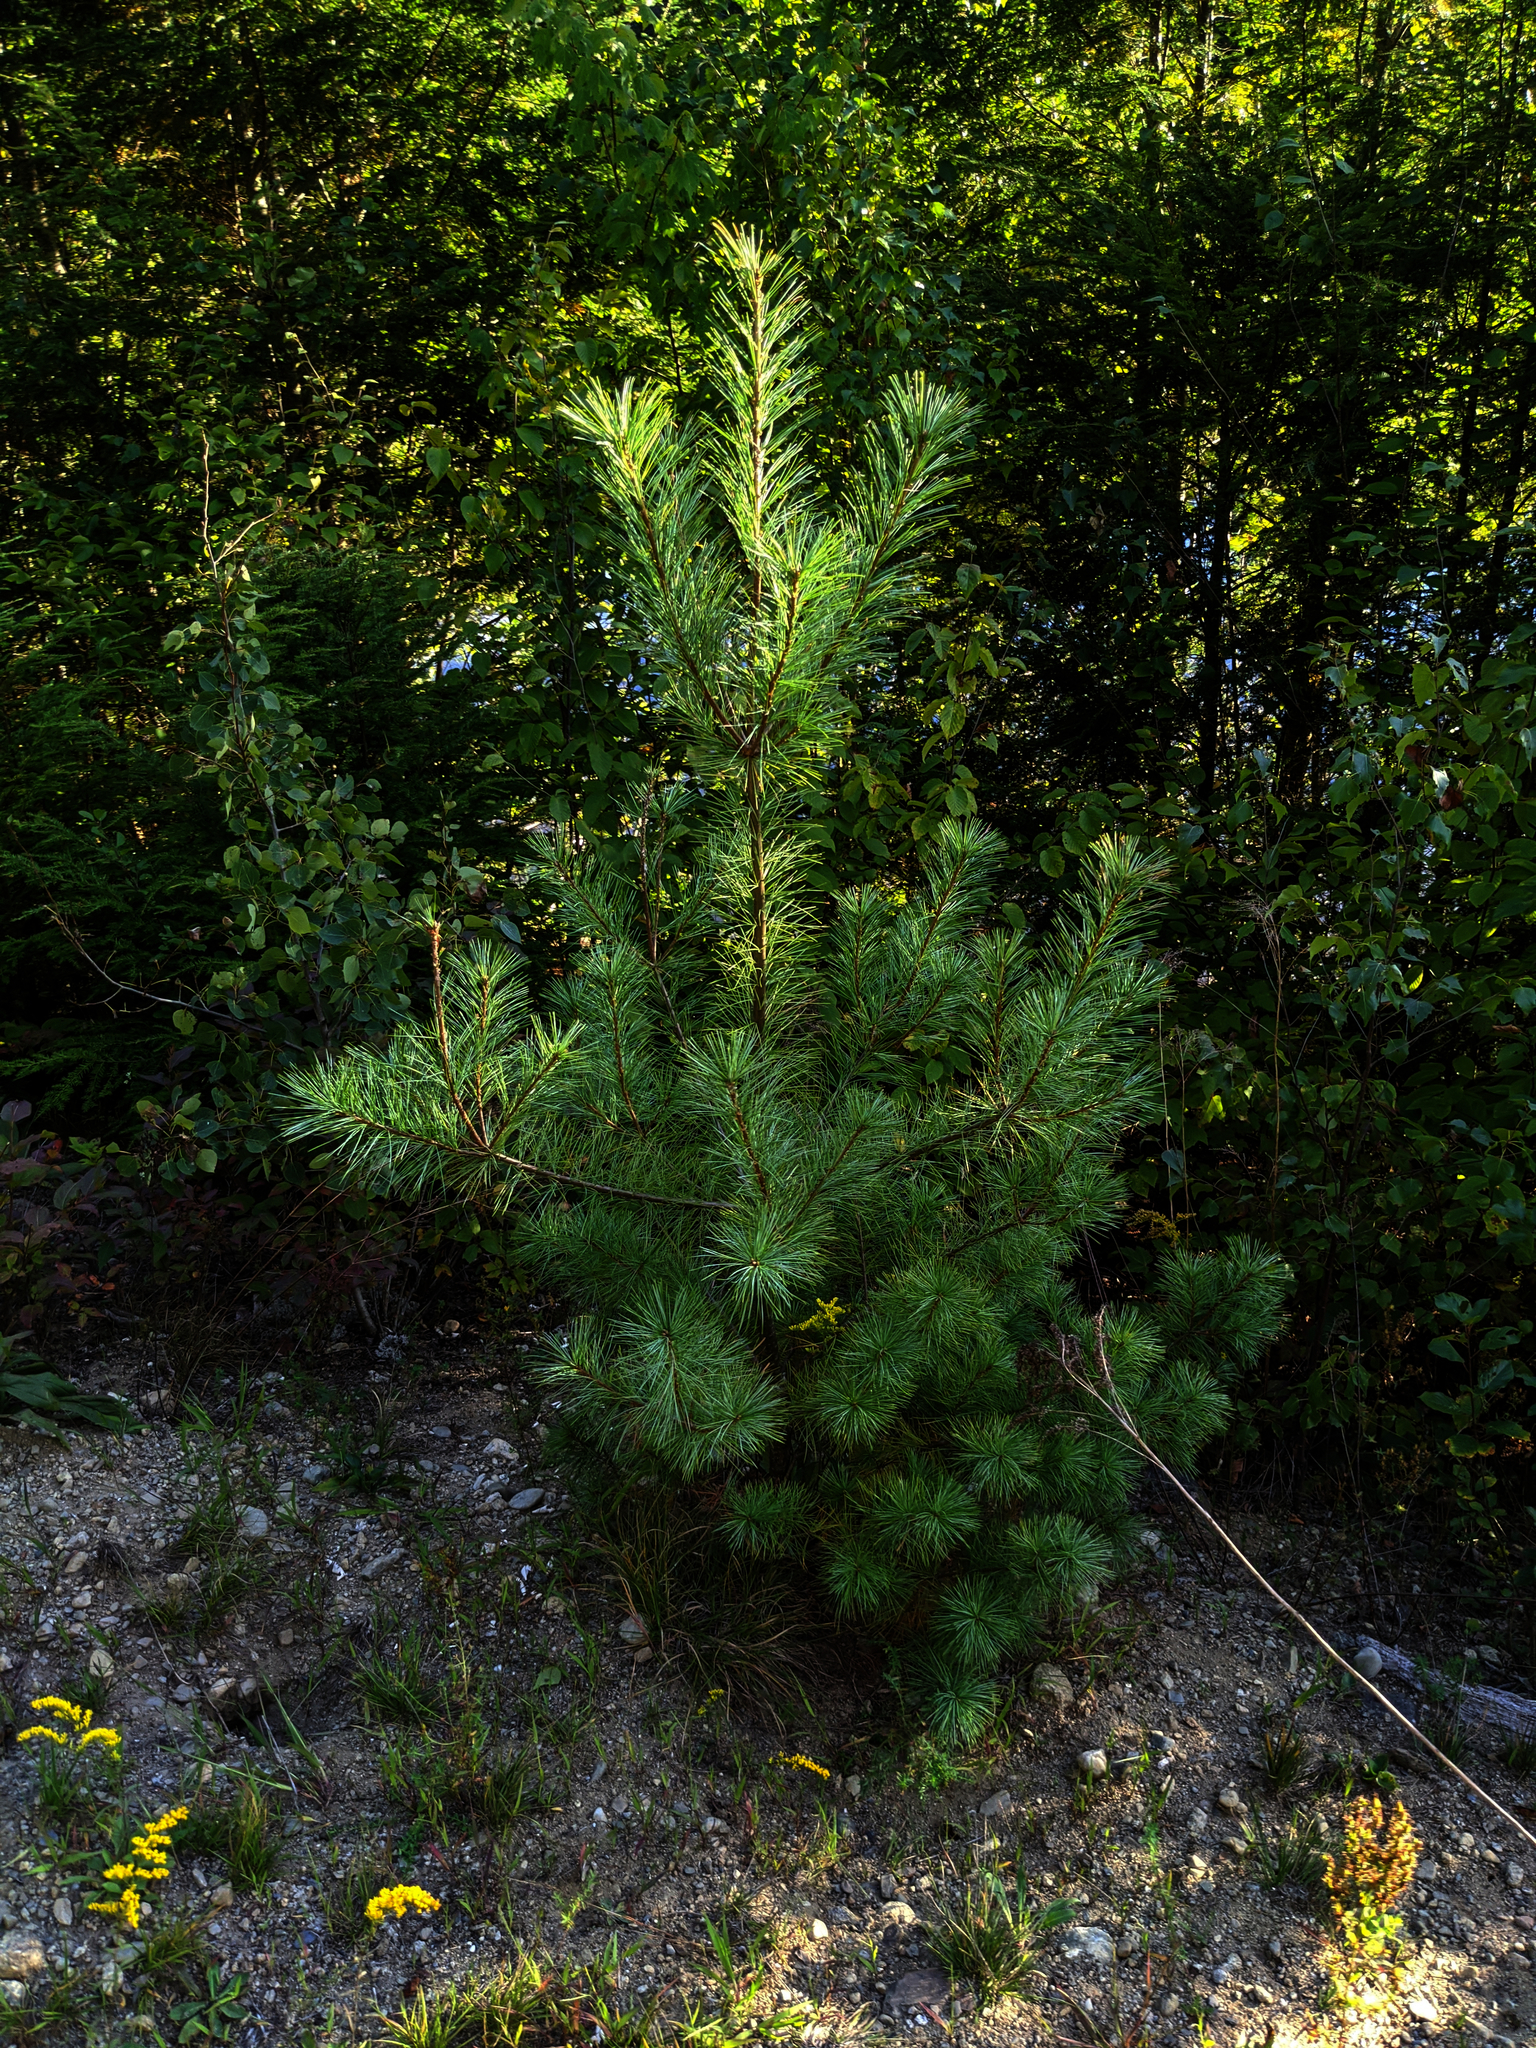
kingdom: Plantae
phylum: Tracheophyta
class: Pinopsida
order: Pinales
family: Pinaceae
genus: Pinus
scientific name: Pinus strobus
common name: Weymouth pine
